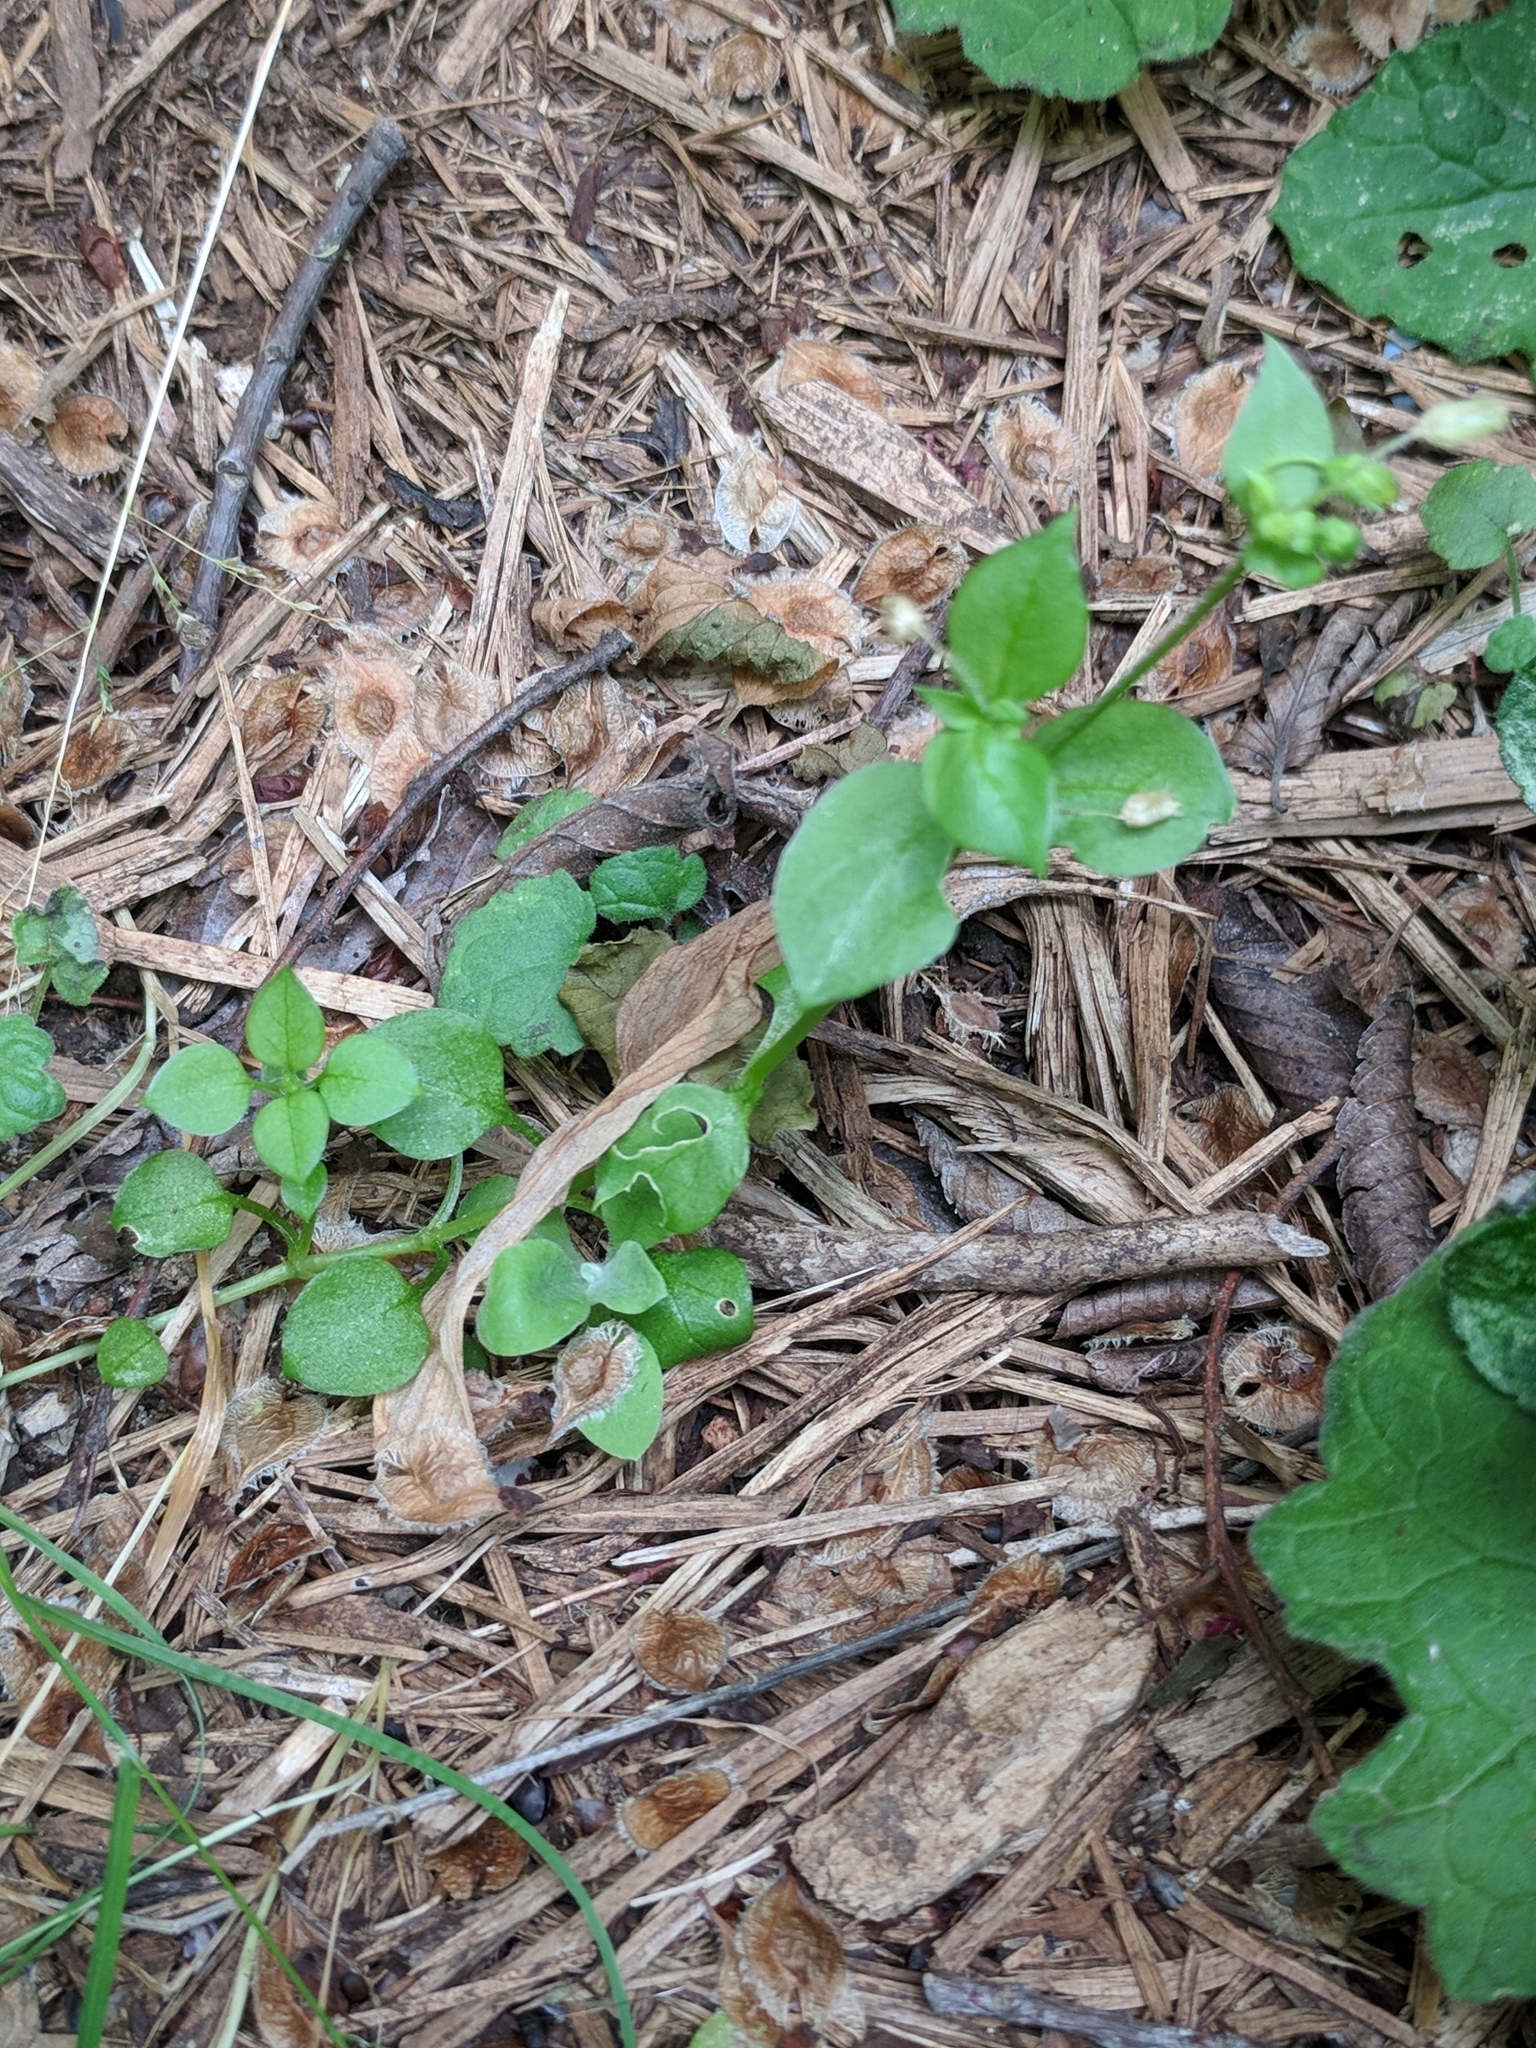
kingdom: Plantae
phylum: Tracheophyta
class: Magnoliopsida
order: Caryophyllales
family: Caryophyllaceae
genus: Stellaria
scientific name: Stellaria media
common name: Common chickweed
